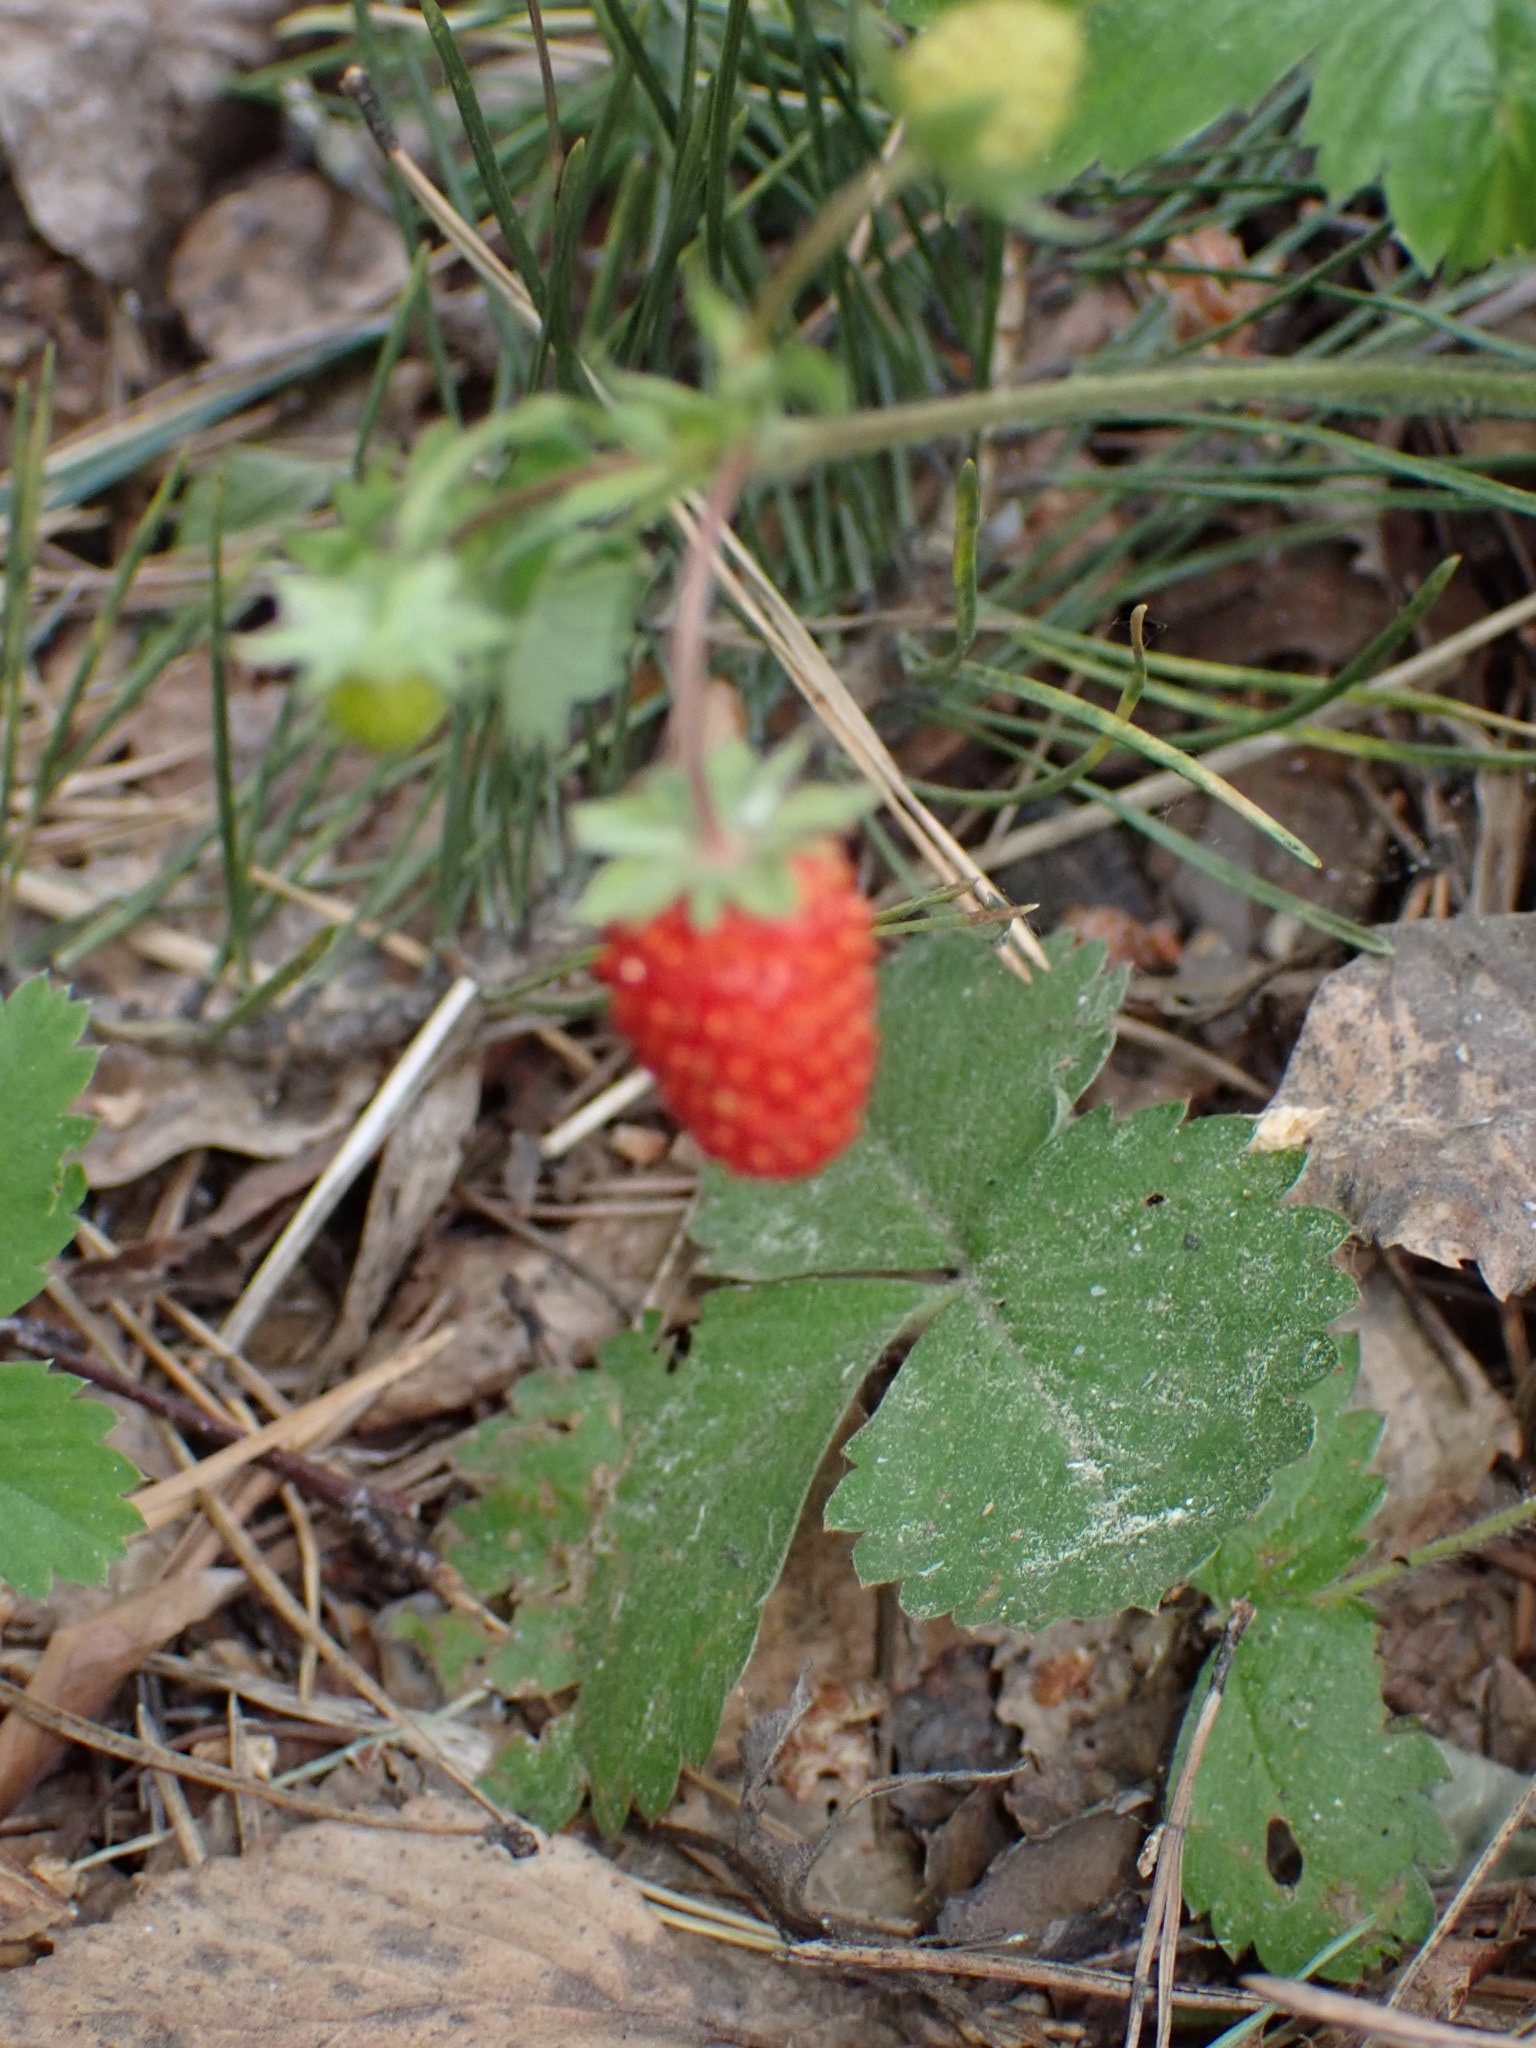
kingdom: Plantae
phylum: Tracheophyta
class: Magnoliopsida
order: Rosales
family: Rosaceae
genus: Fragaria
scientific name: Fragaria vesca
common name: Wild strawberry
